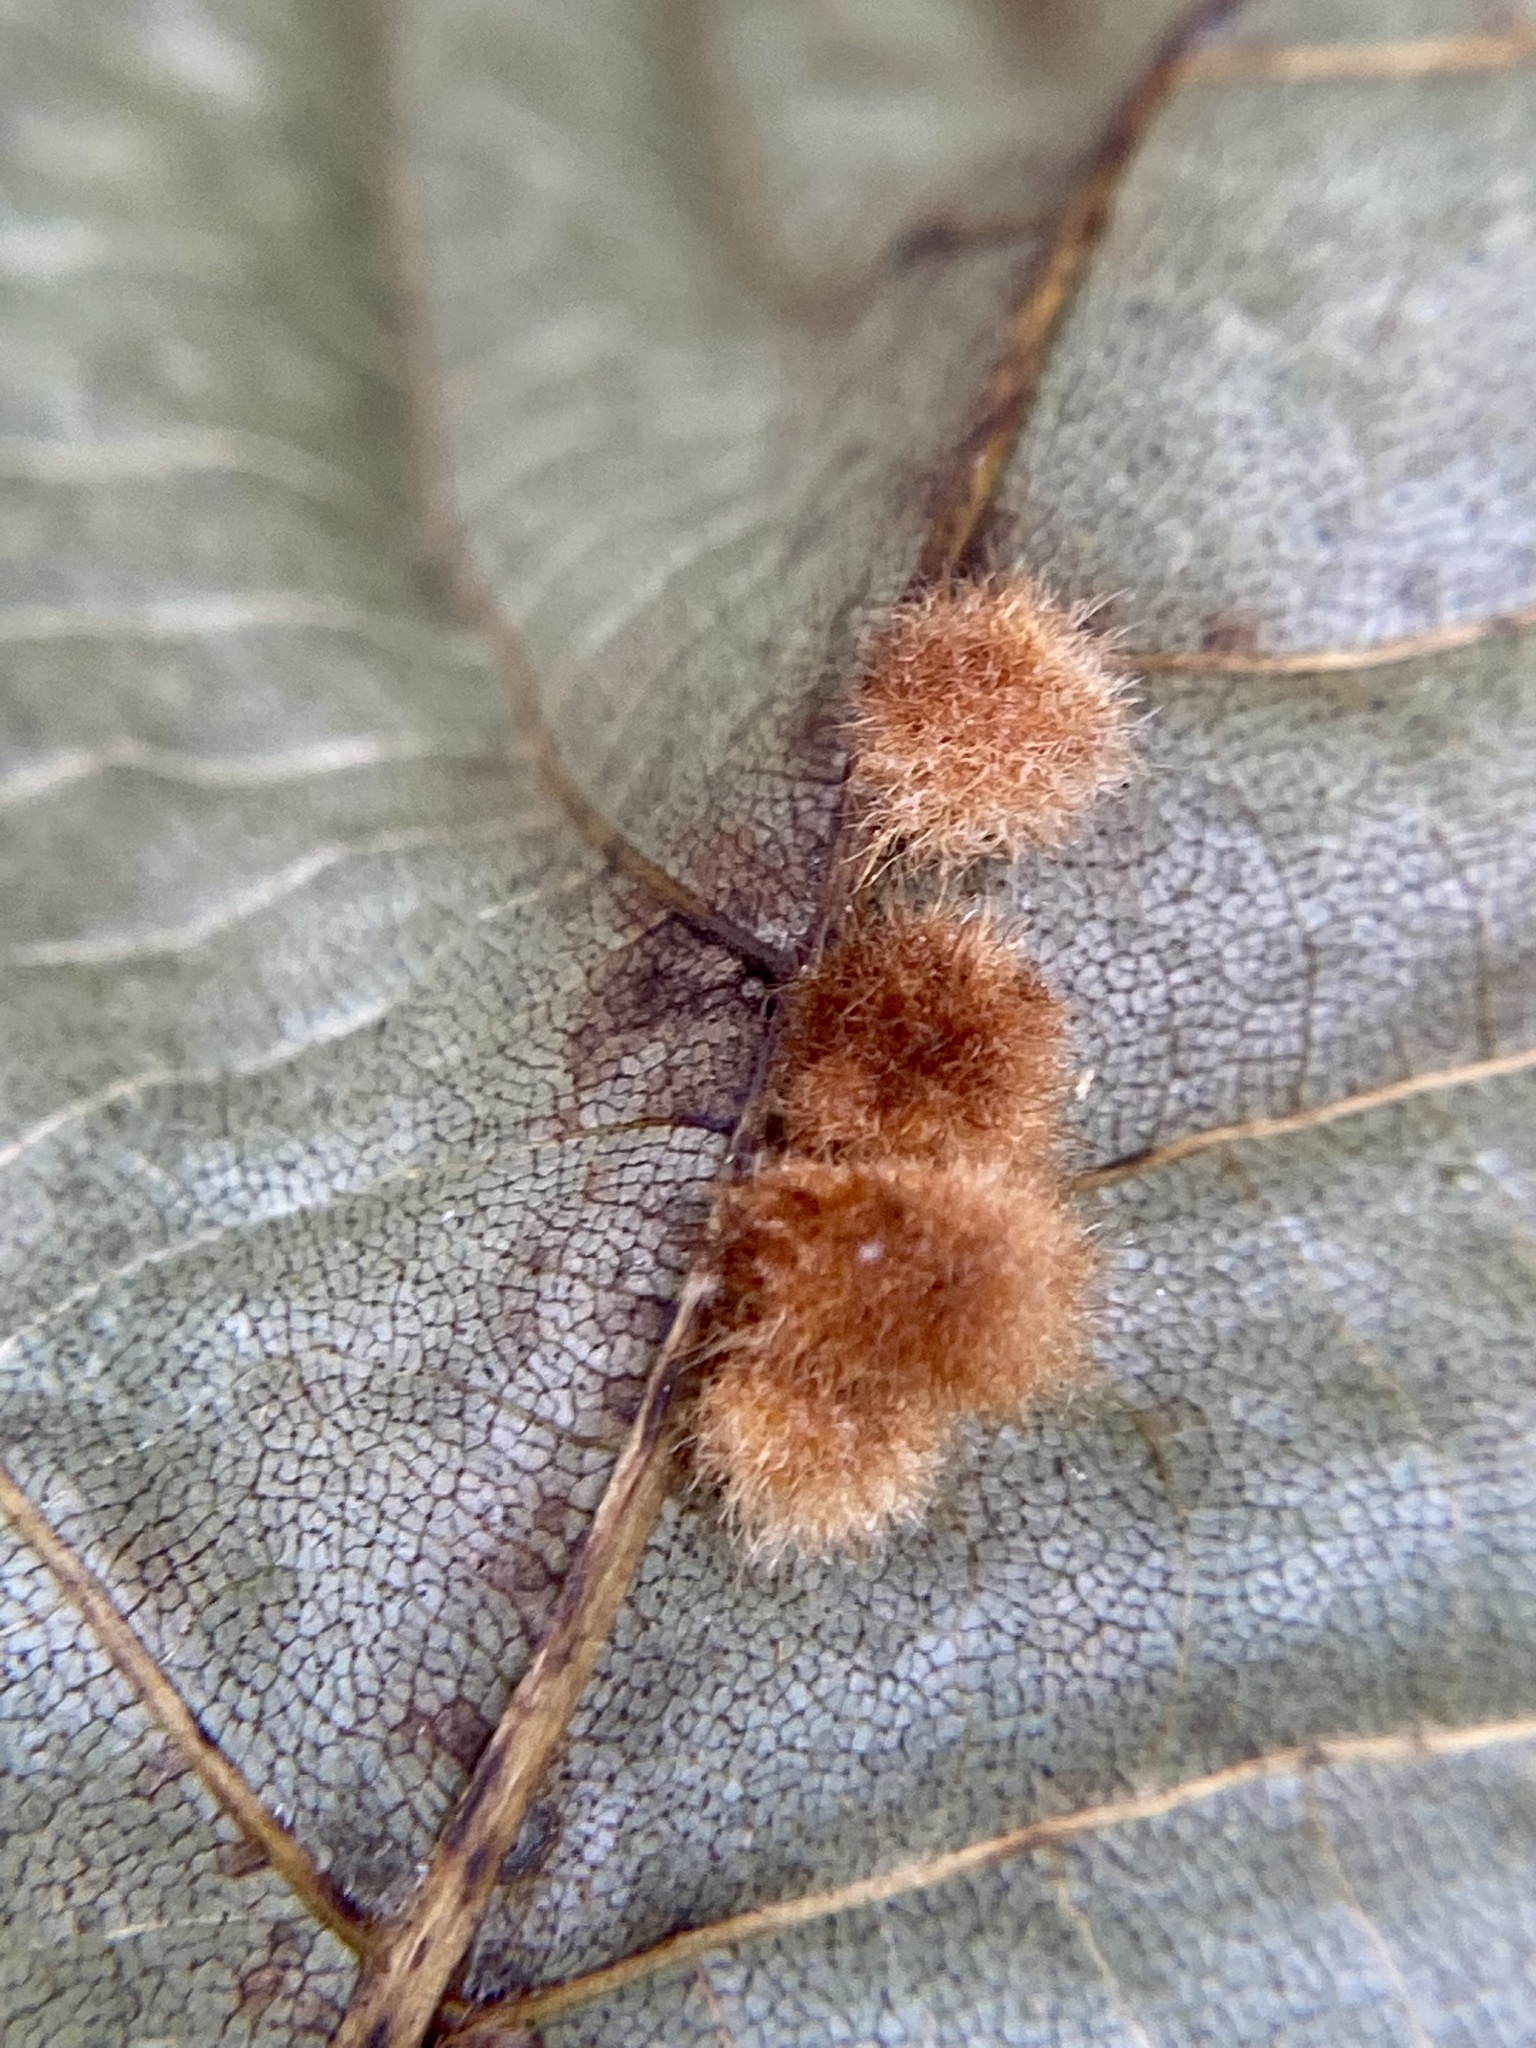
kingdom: Animalia
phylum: Arthropoda
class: Insecta
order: Diptera
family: Cecidomyiidae
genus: Caryomyia
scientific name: Caryomyia aggregata
